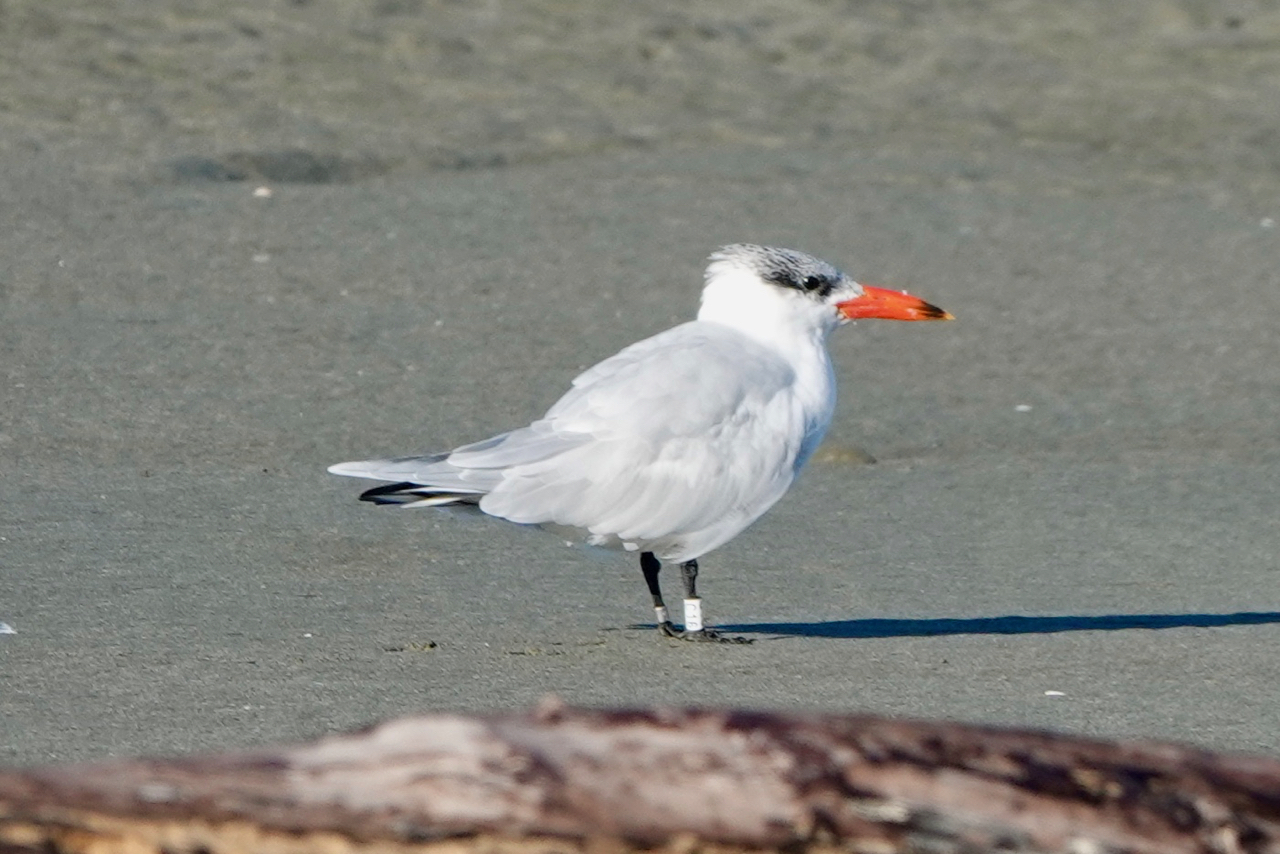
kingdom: Animalia
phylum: Chordata
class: Aves
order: Charadriiformes
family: Laridae
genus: Hydroprogne
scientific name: Hydroprogne caspia
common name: Caspian tern
